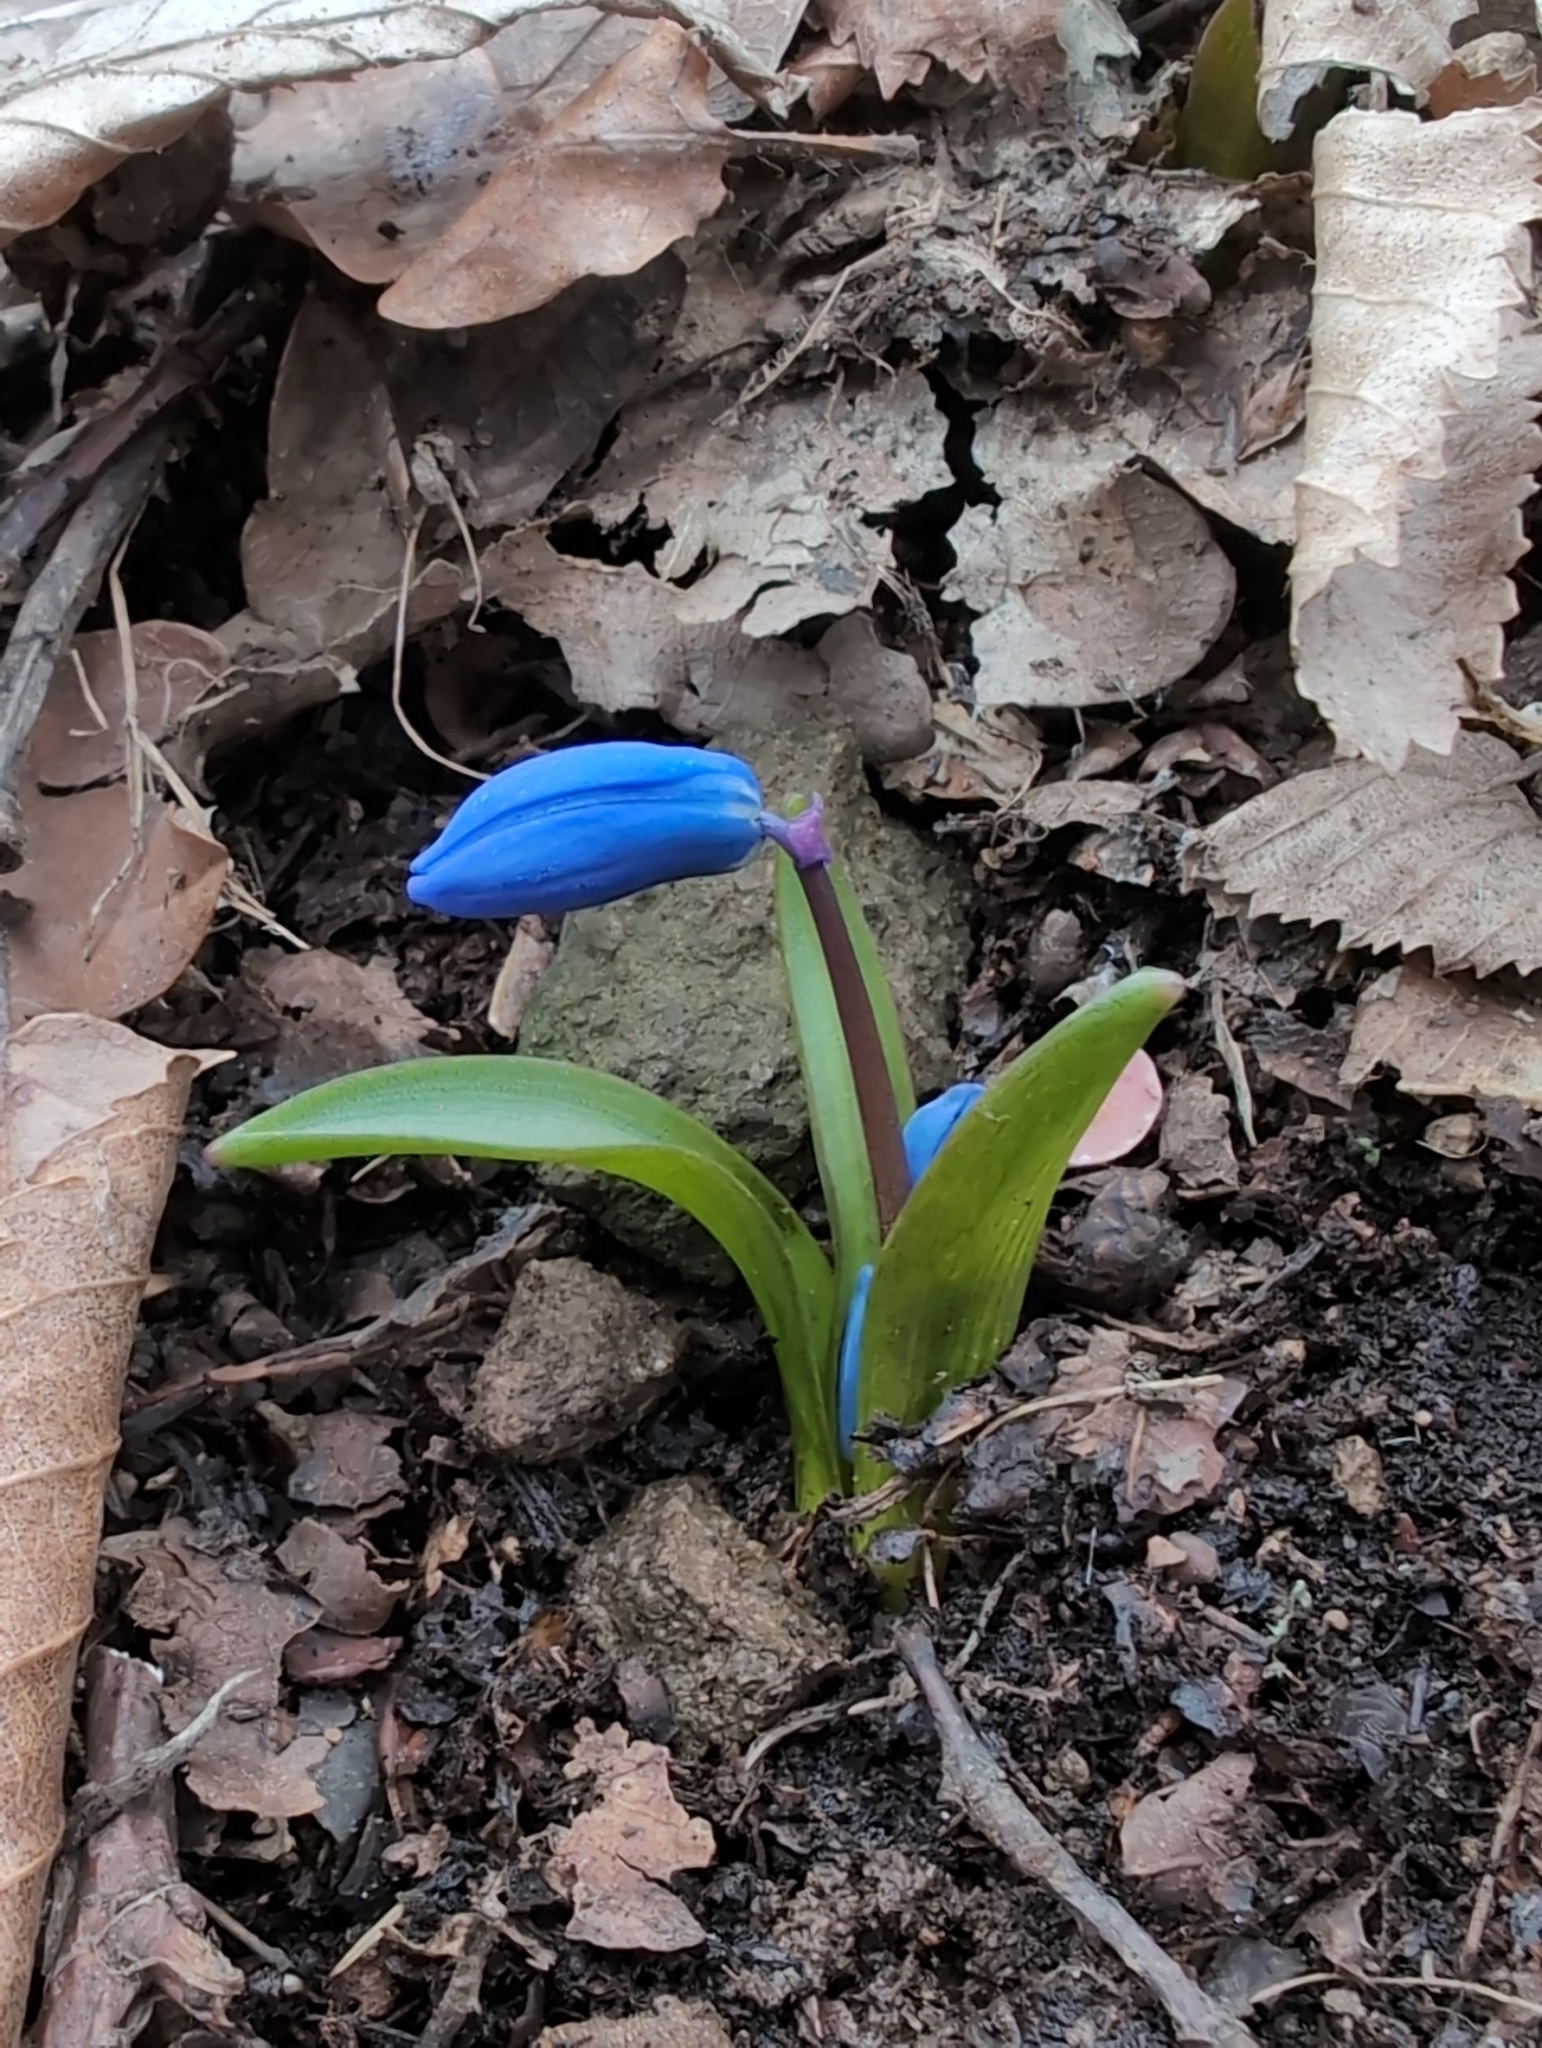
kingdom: Plantae
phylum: Tracheophyta
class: Liliopsida
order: Asparagales
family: Asparagaceae
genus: Scilla
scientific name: Scilla siberica
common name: Siberian squill
